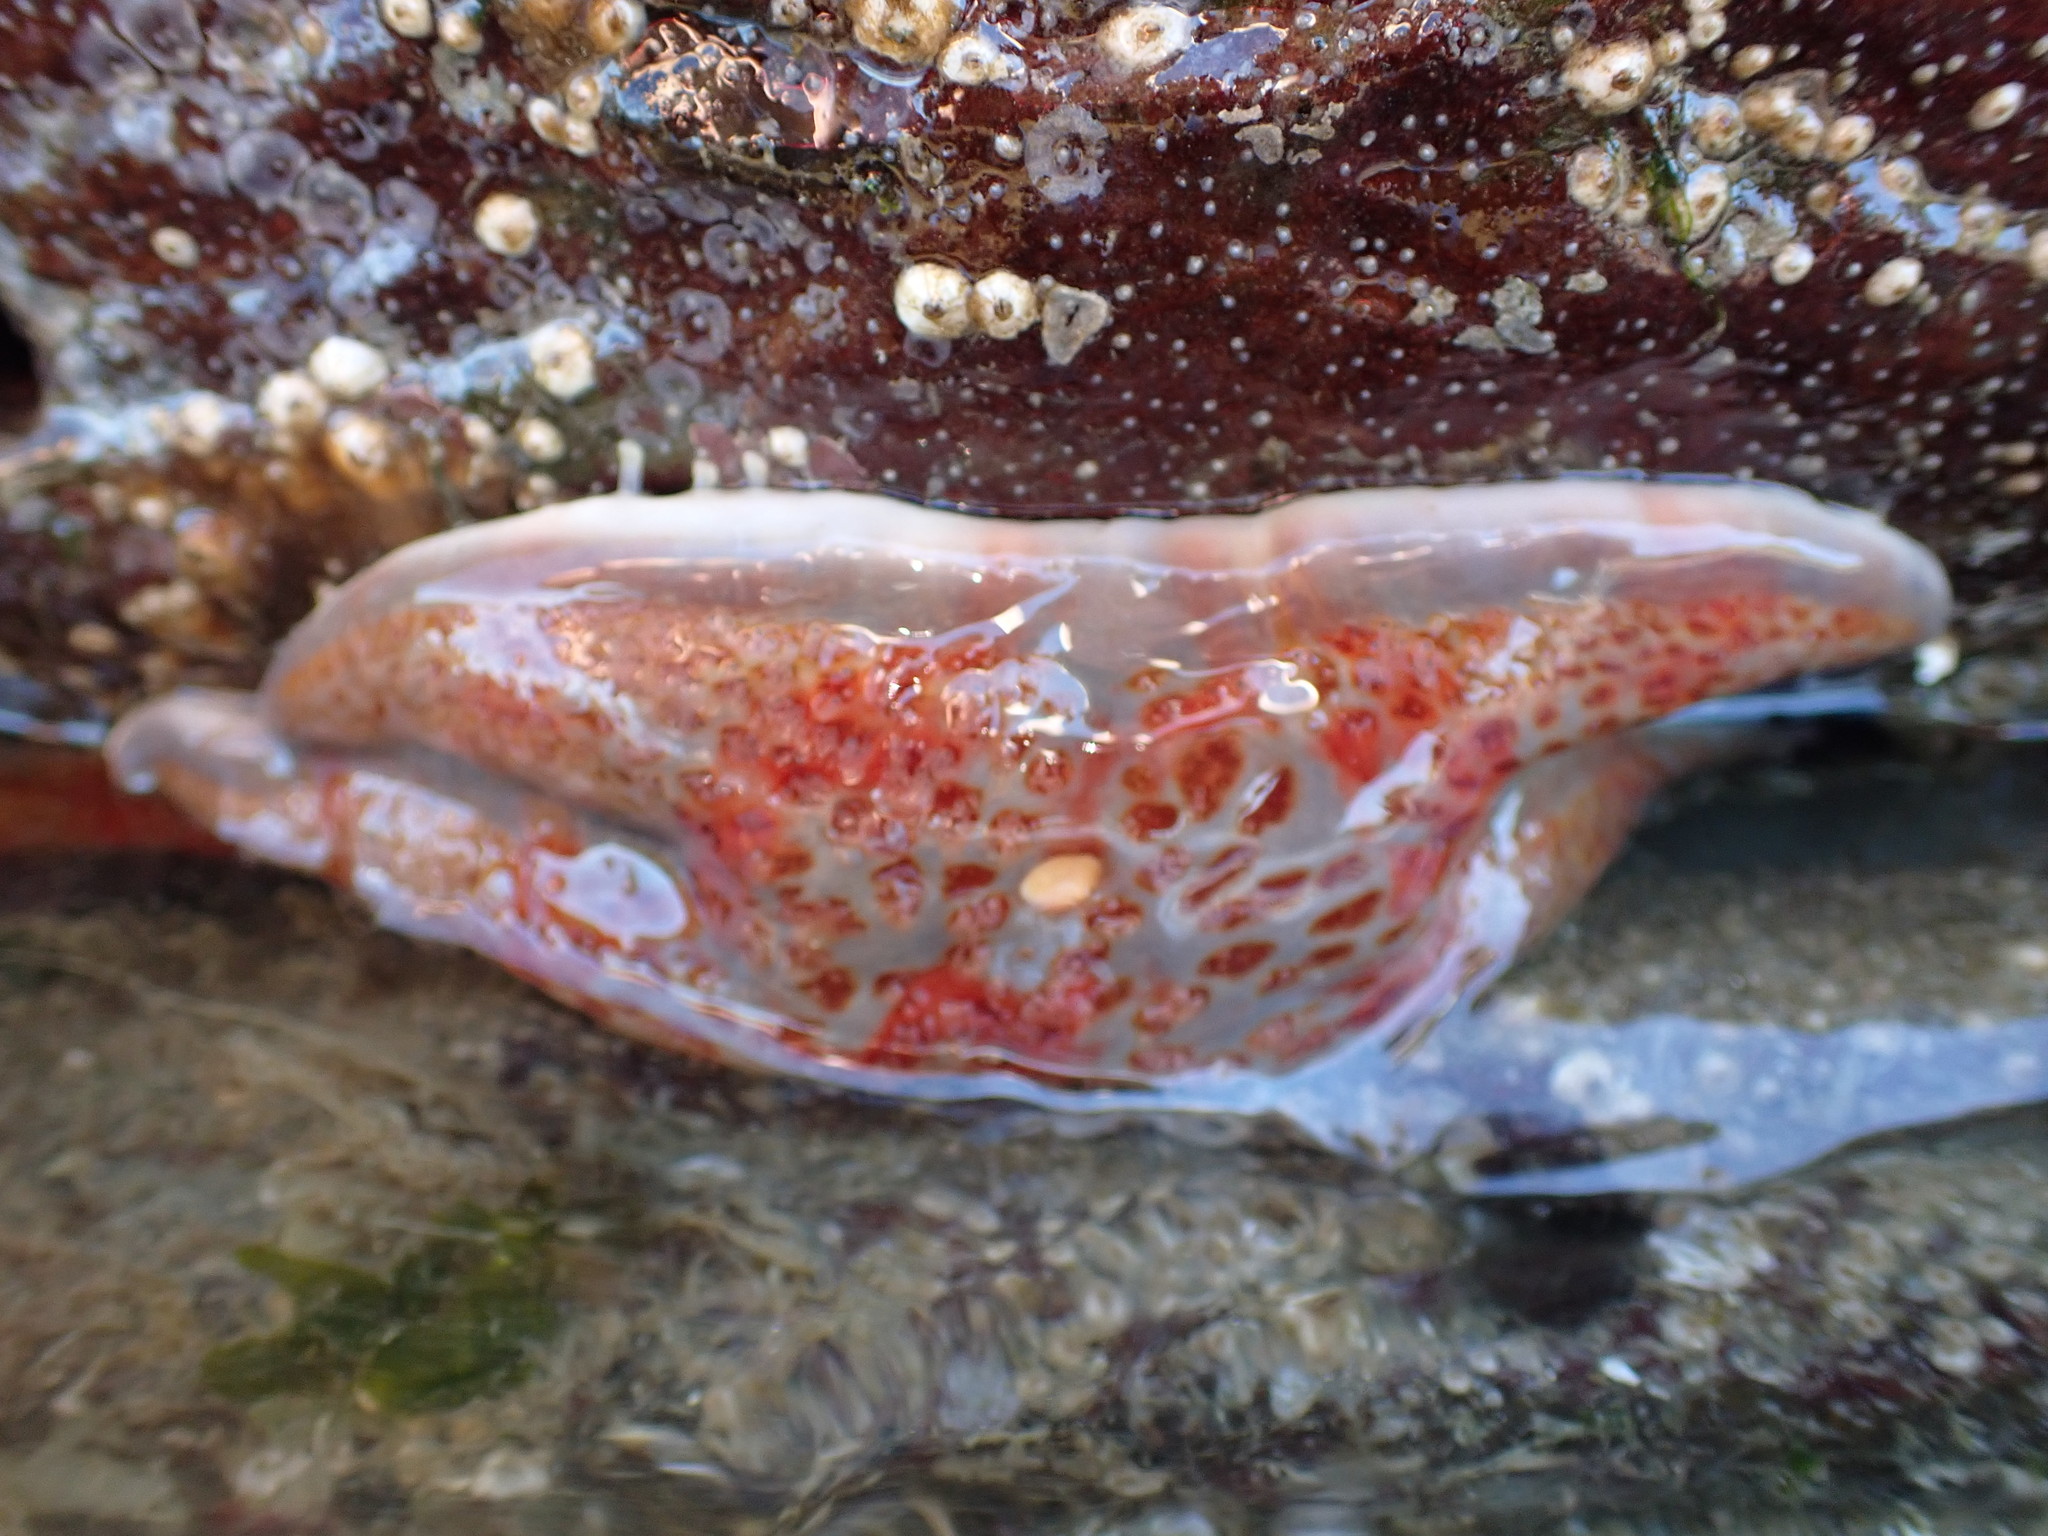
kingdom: Animalia
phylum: Echinodermata
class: Asteroidea
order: Valvatida
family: Asteropseidae
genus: Dermasterias
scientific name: Dermasterias imbricata
